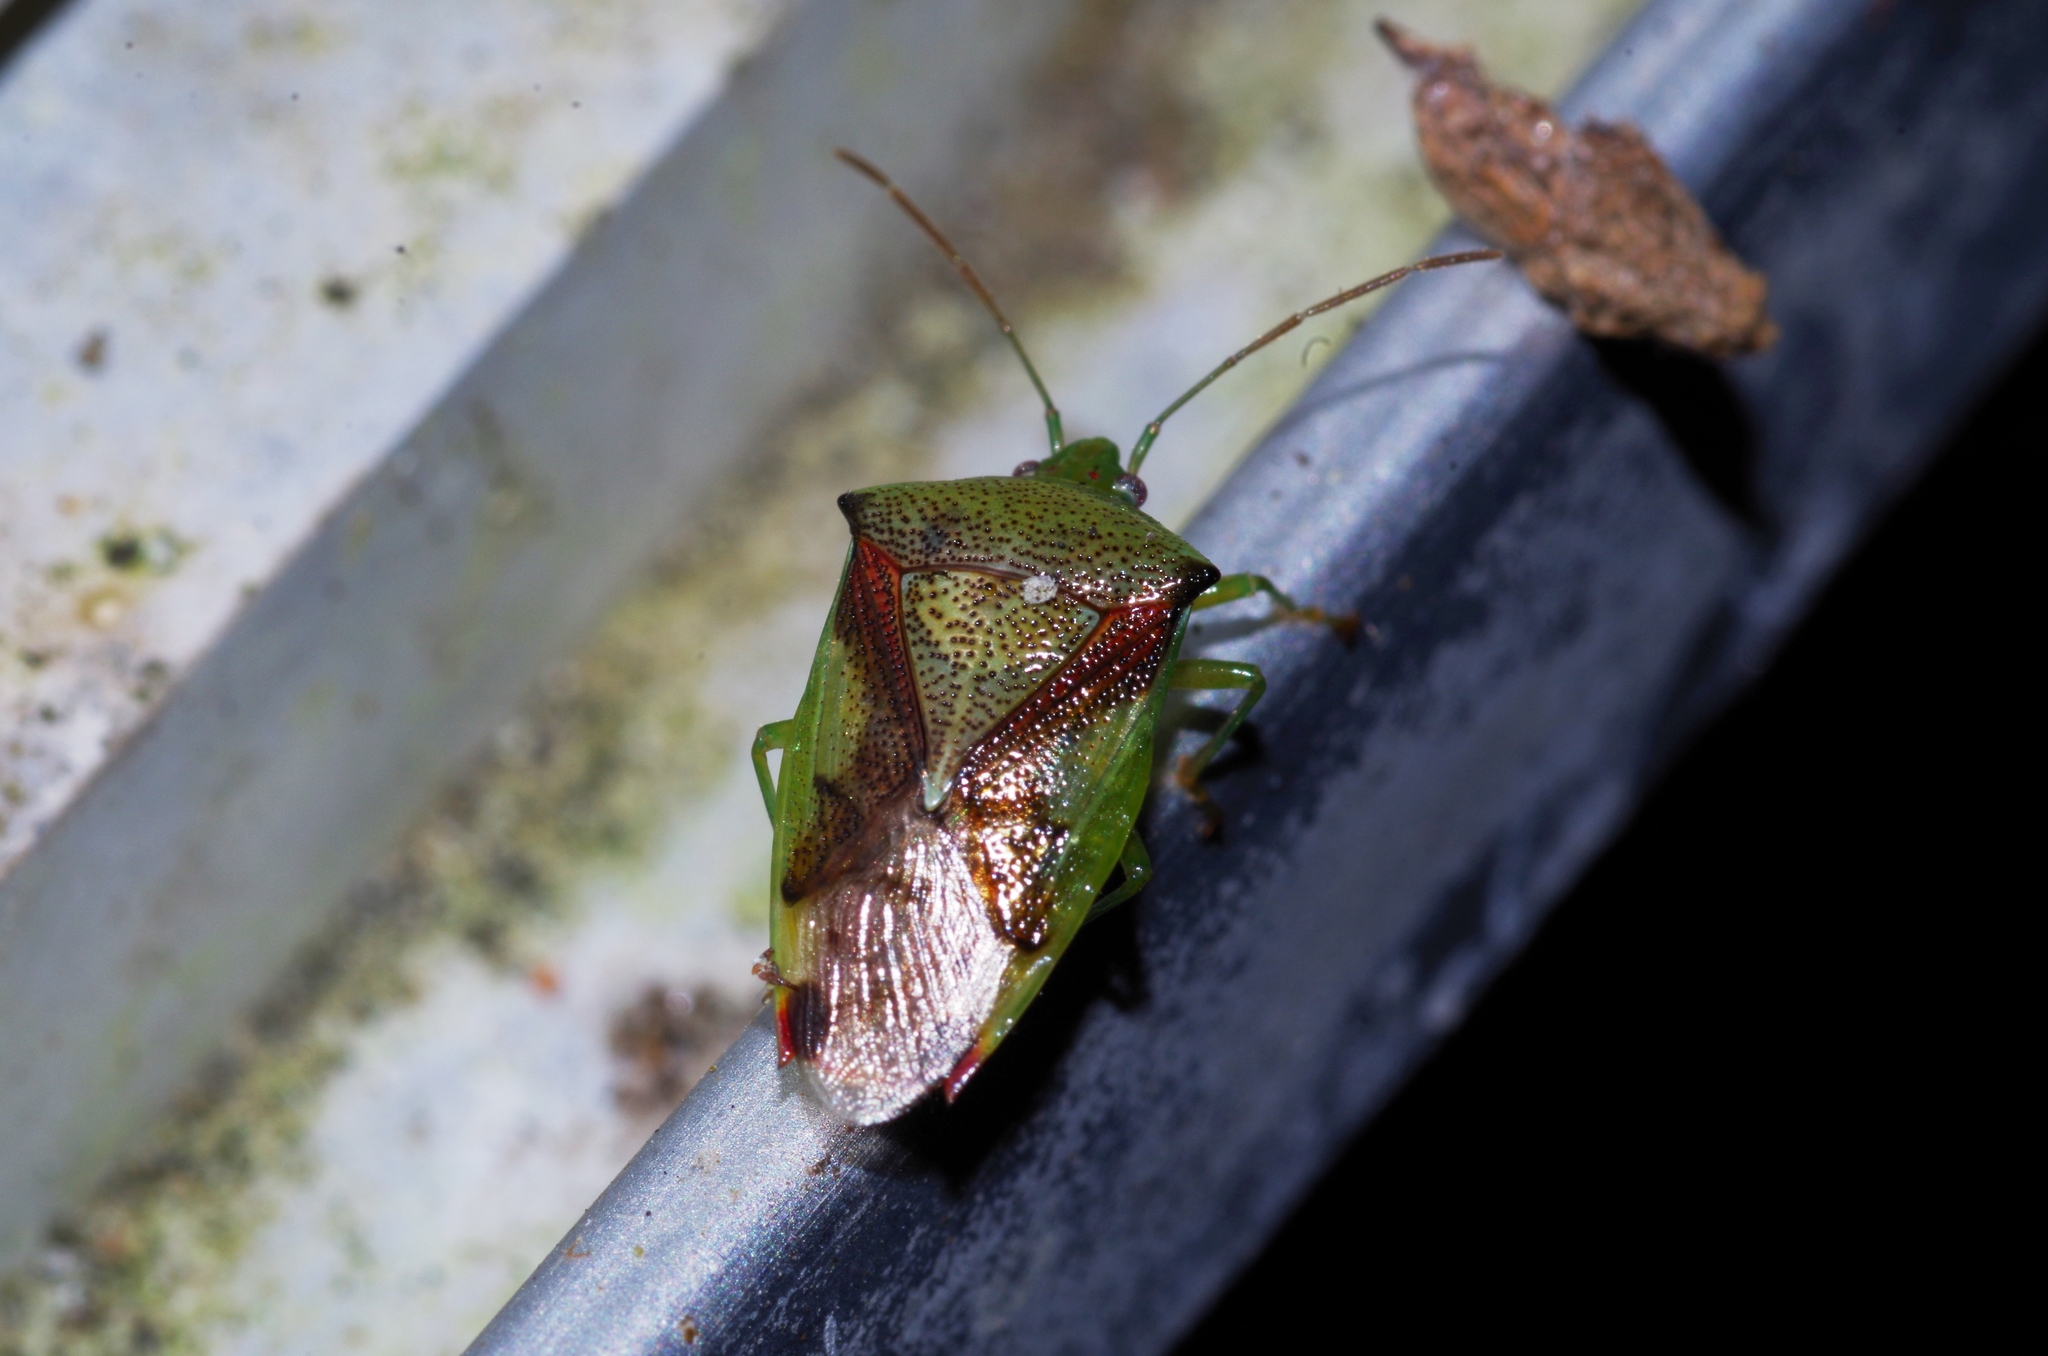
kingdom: Animalia
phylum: Arthropoda
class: Insecta
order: Hemiptera
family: Acanthosomatidae
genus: Elasmostethus
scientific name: Elasmostethus nubilus
